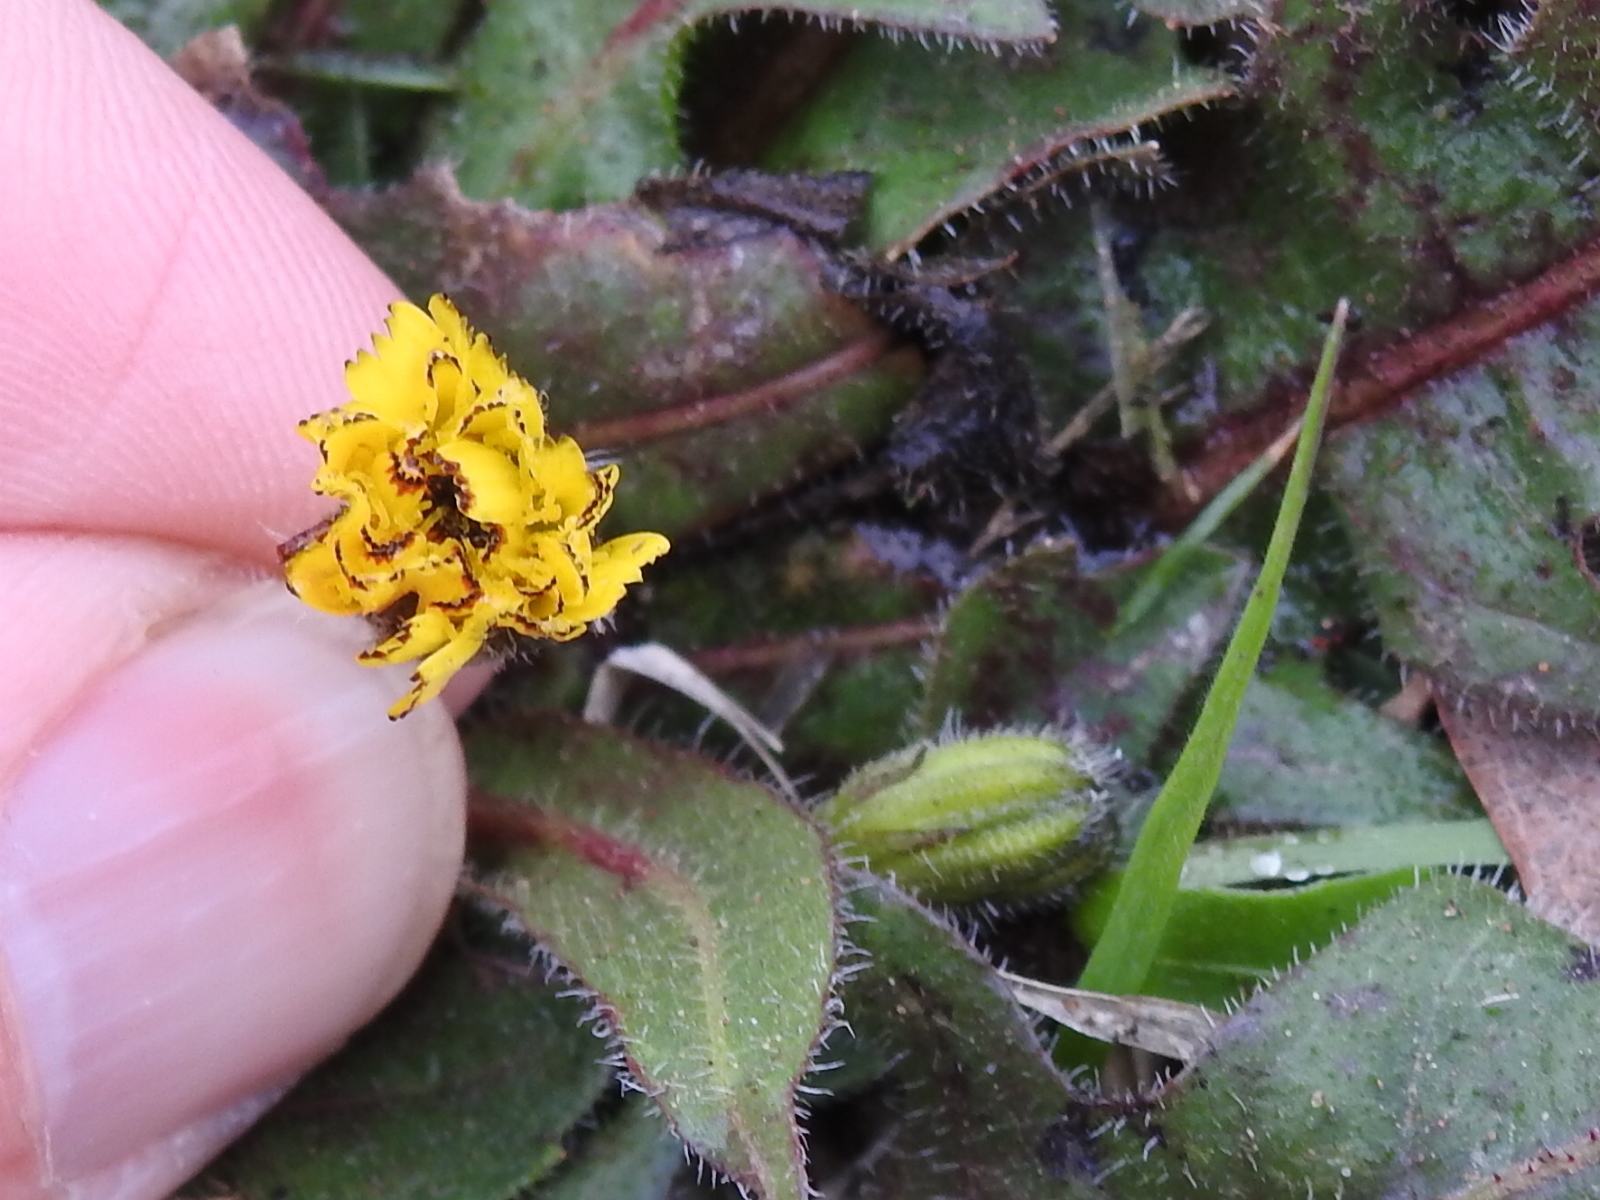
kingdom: Plantae
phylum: Tracheophyta
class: Magnoliopsida
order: Asterales
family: Asteraceae
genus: Hedypnois
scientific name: Hedypnois rhagadioloides
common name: Cretan weed
